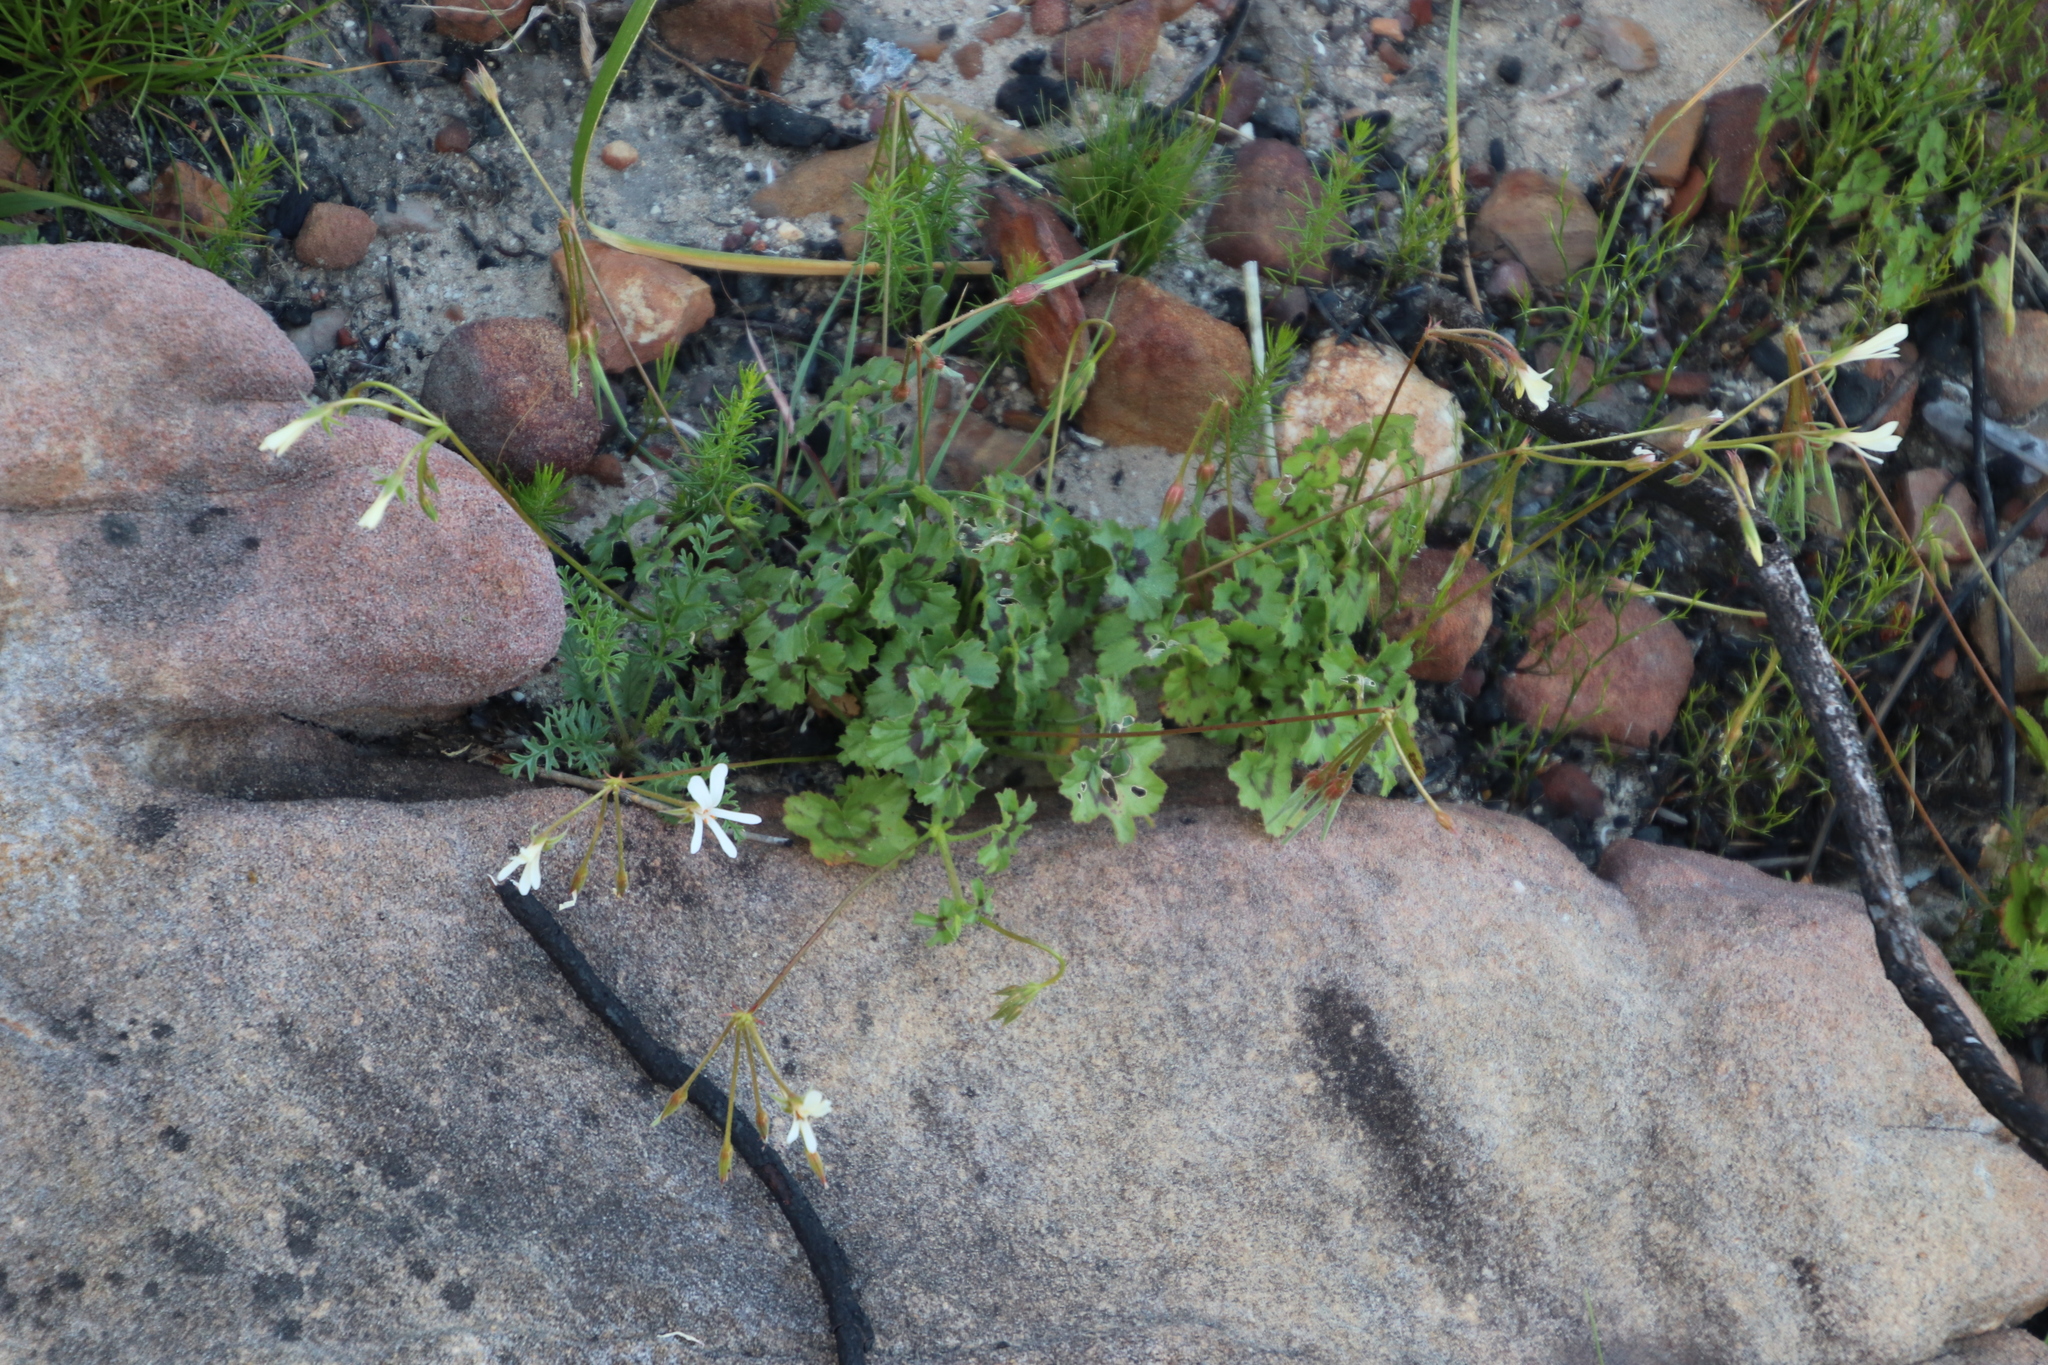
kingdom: Plantae
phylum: Tracheophyta
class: Magnoliopsida
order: Geraniales
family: Geraniaceae
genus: Pelargonium
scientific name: Pelargonium elongatum
